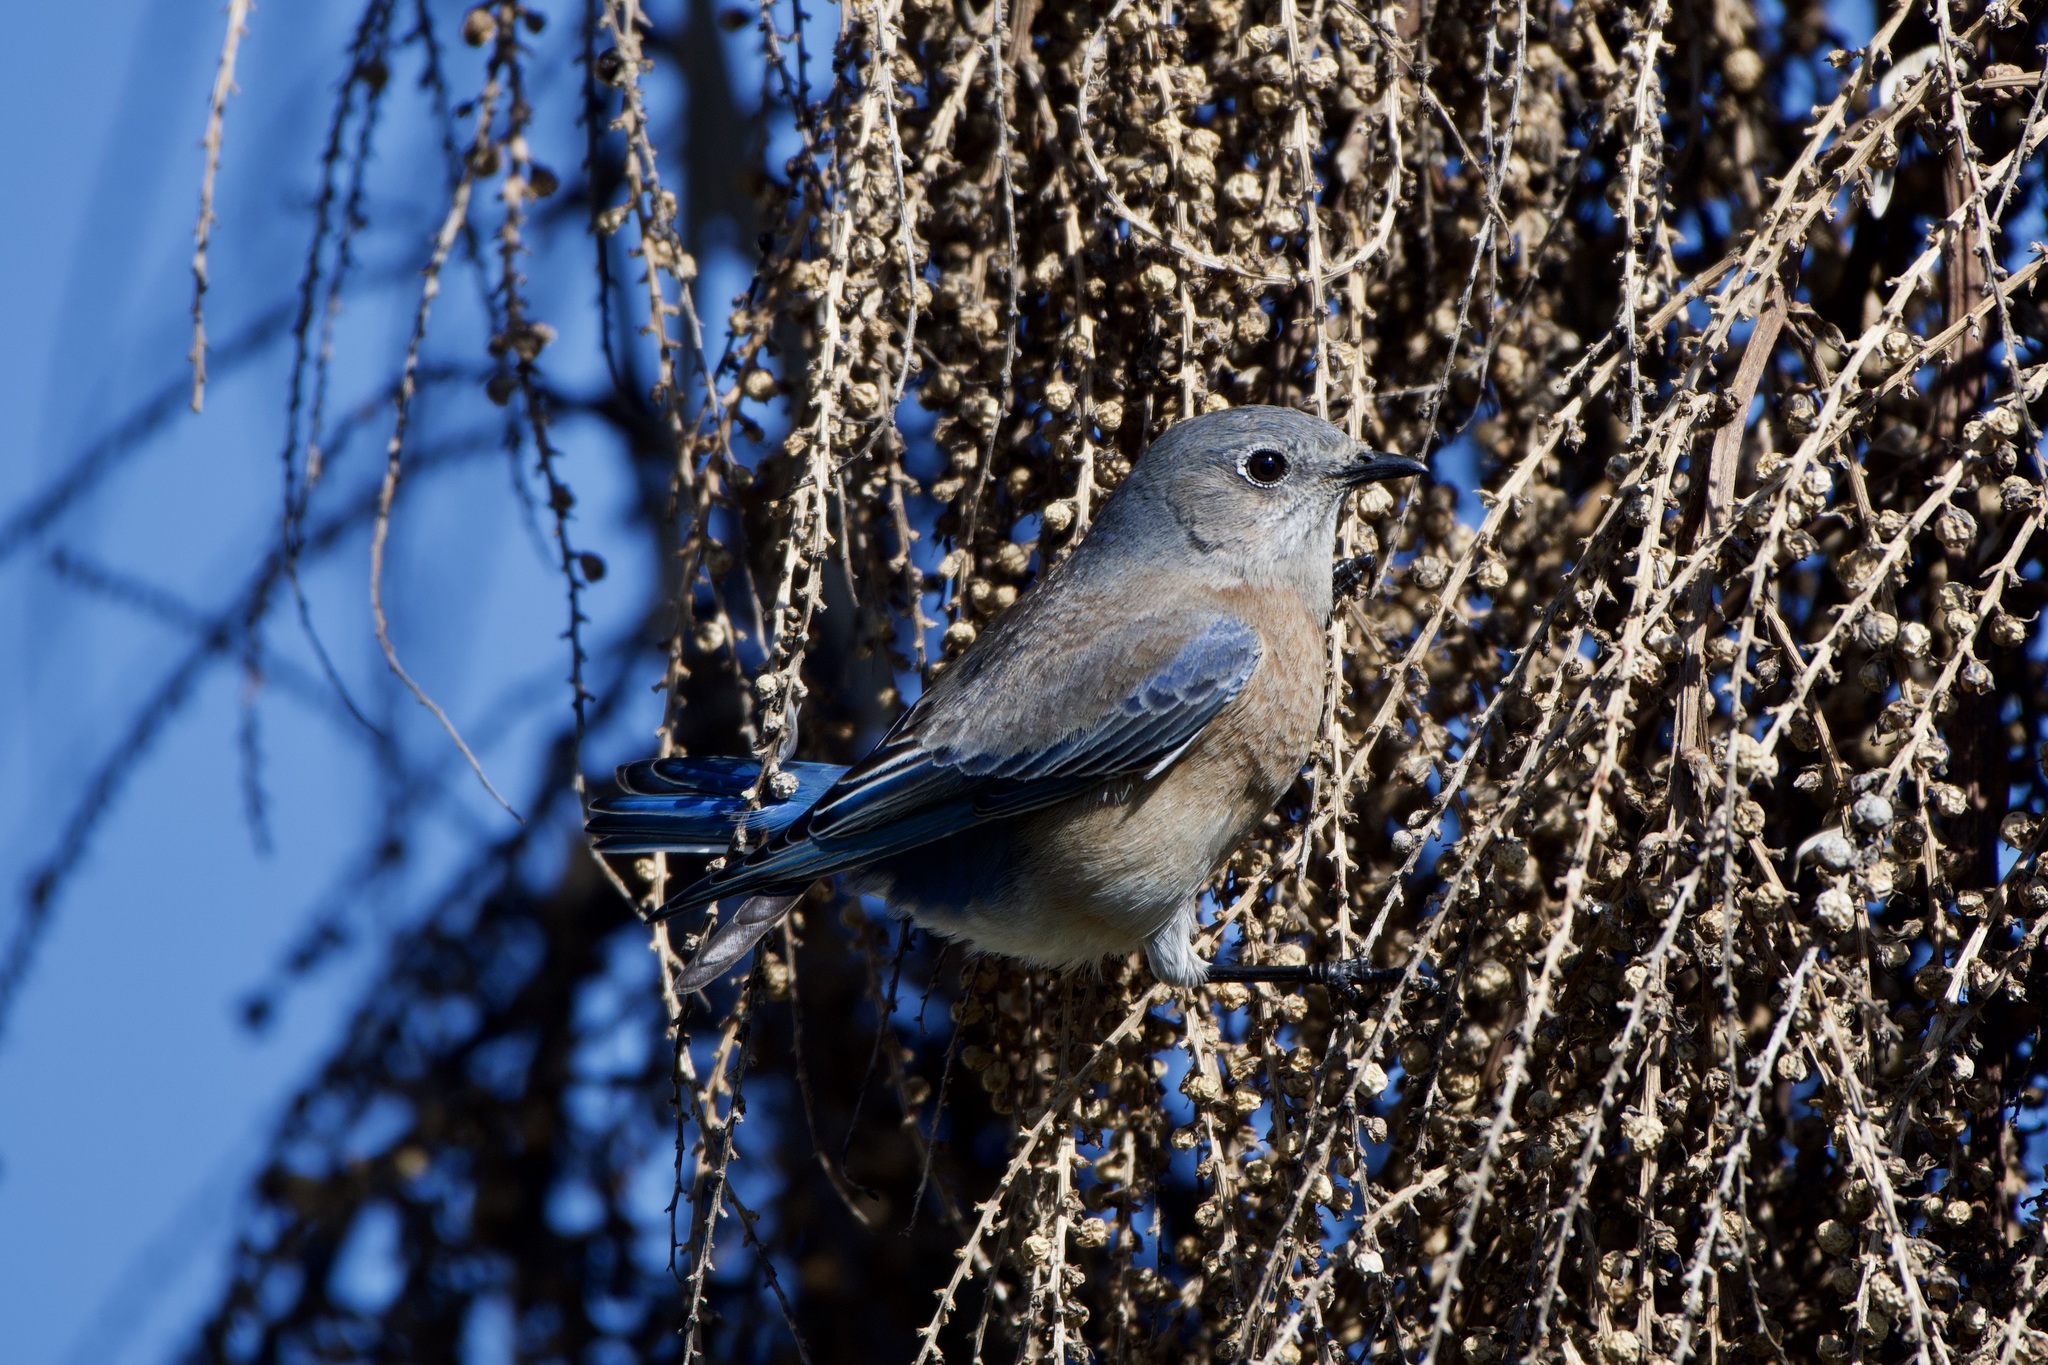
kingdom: Animalia
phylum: Chordata
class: Aves
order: Passeriformes
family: Turdidae
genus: Sialia
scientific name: Sialia mexicana
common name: Western bluebird
